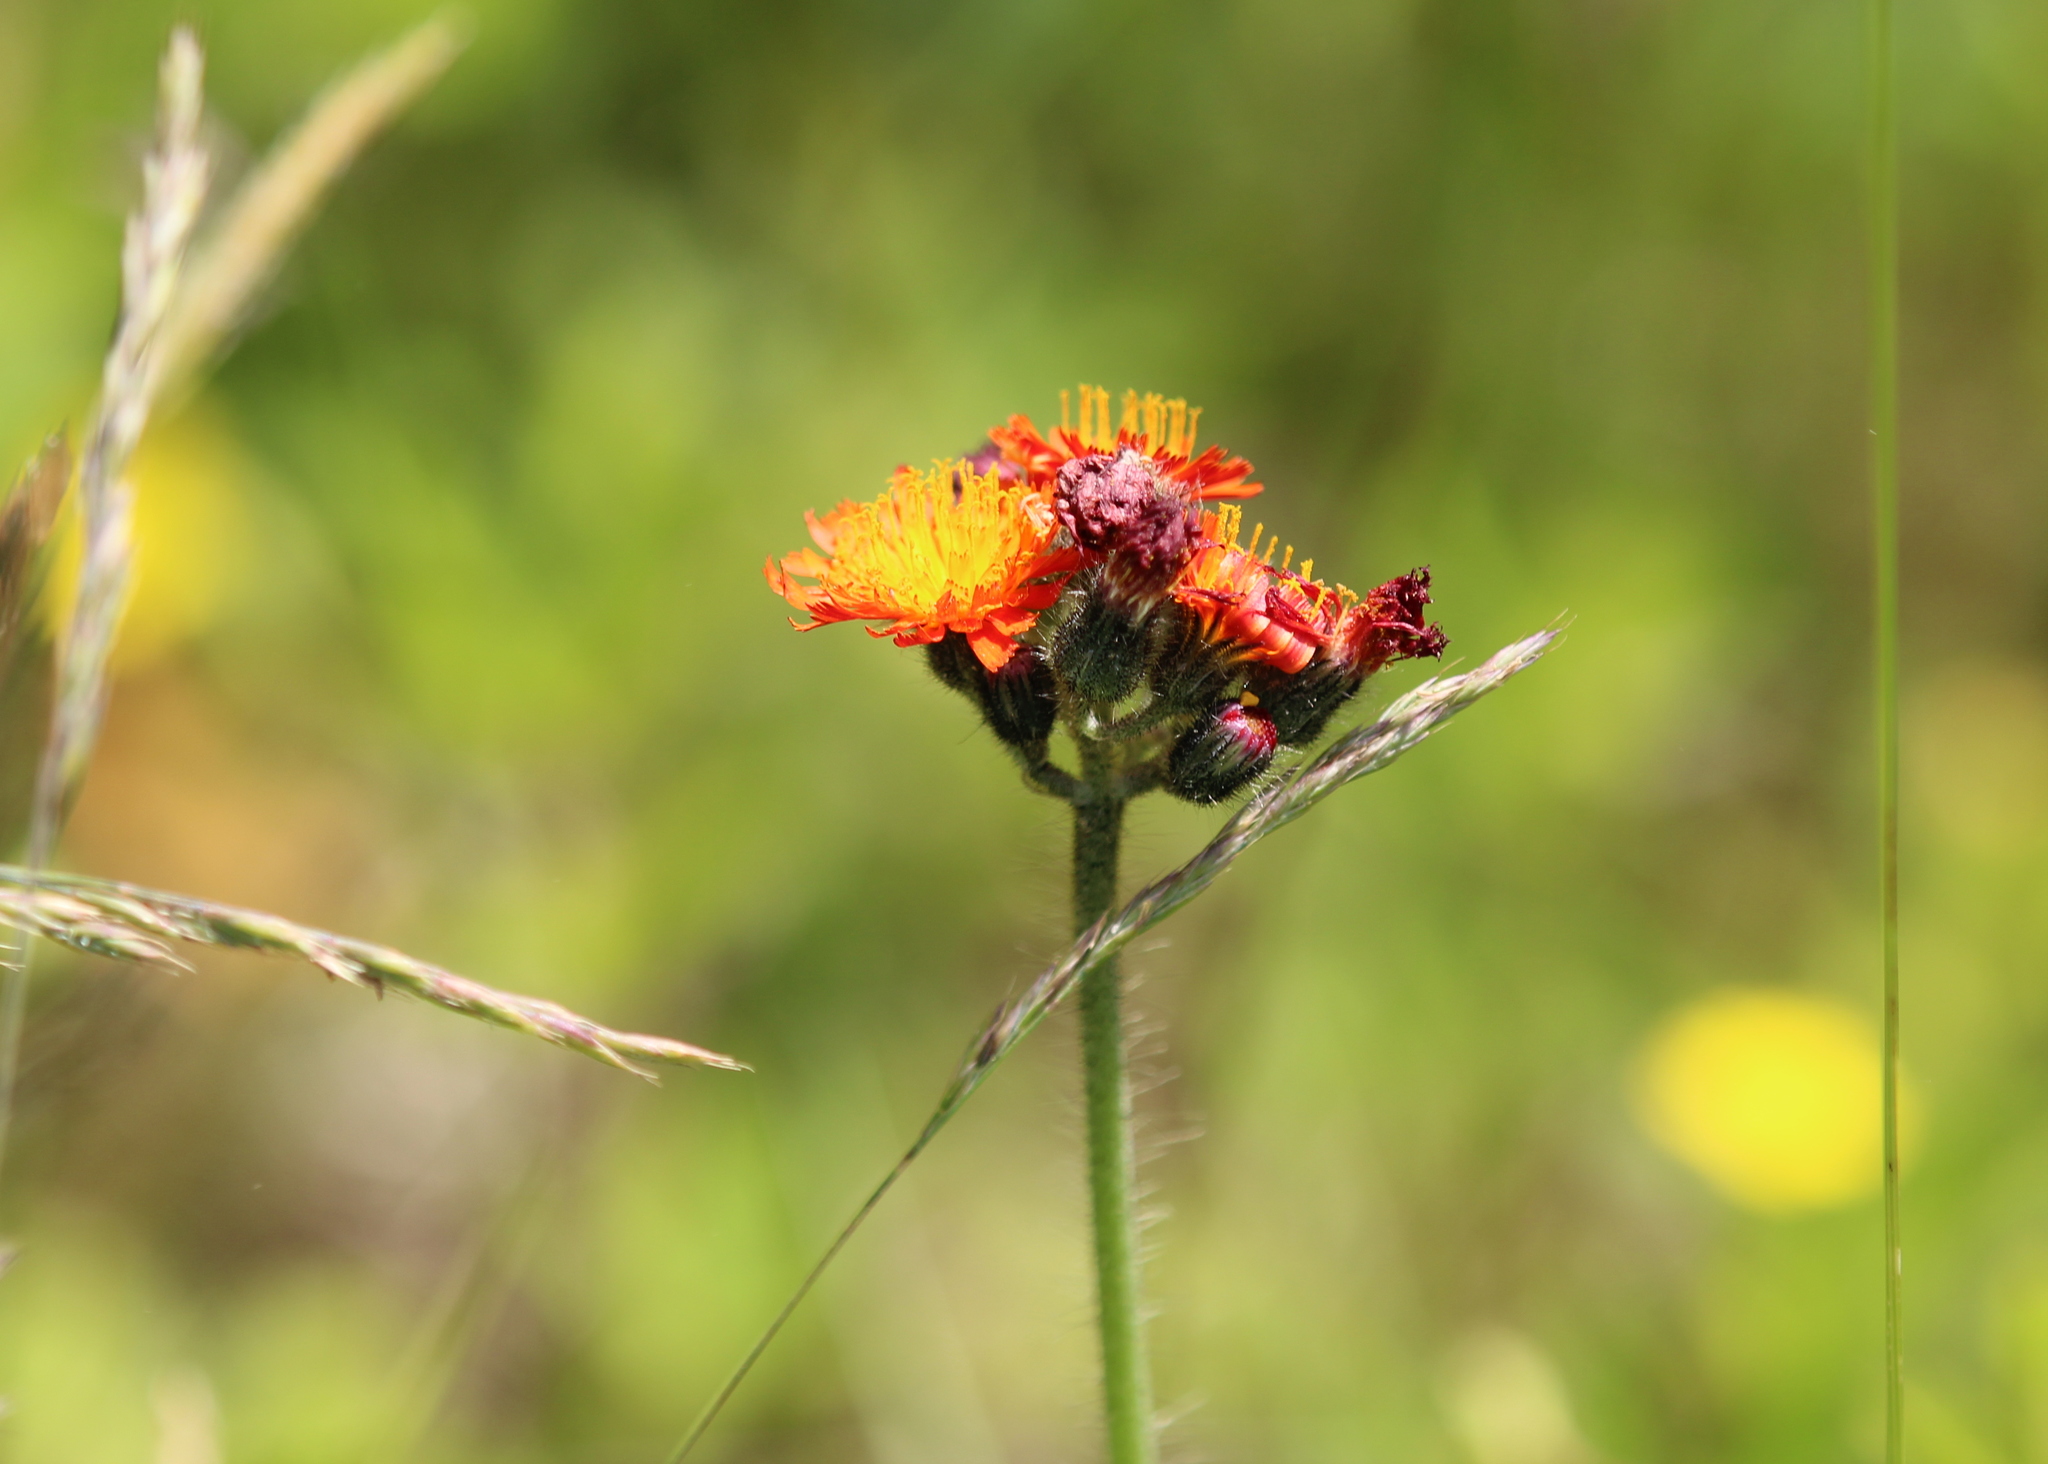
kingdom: Plantae
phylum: Tracheophyta
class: Magnoliopsida
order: Asterales
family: Asteraceae
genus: Pilosella
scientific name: Pilosella aurantiaca
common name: Fox-and-cubs
